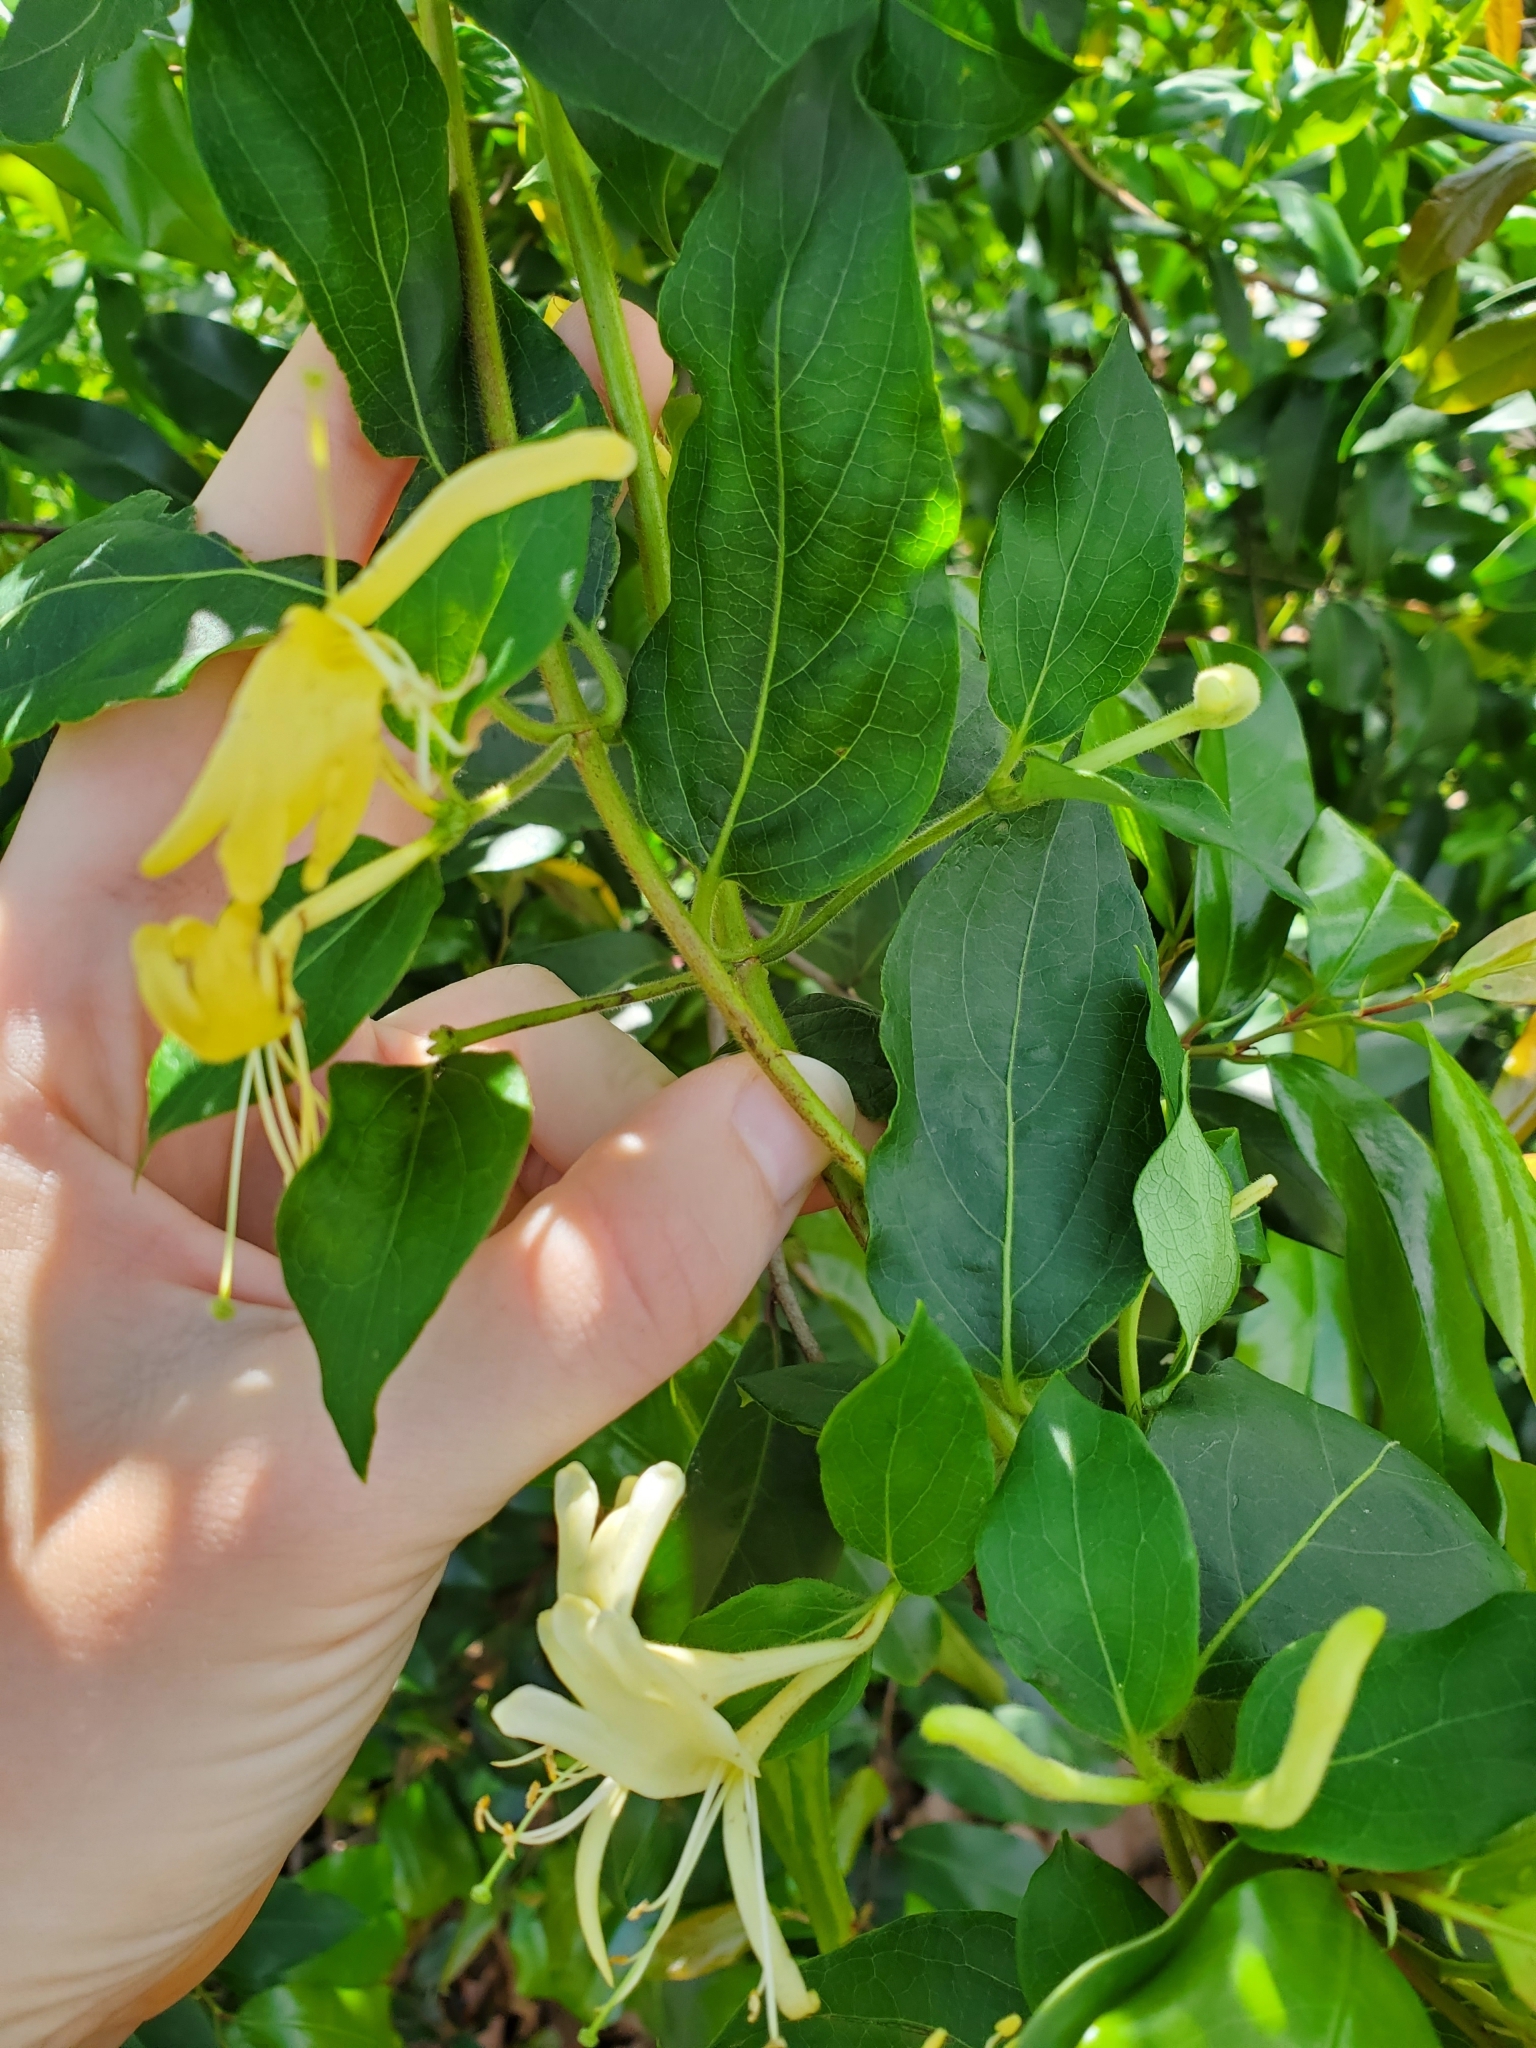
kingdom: Plantae
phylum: Tracheophyta
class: Magnoliopsida
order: Dipsacales
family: Caprifoliaceae
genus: Lonicera
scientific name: Lonicera japonica
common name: Japanese honeysuckle
